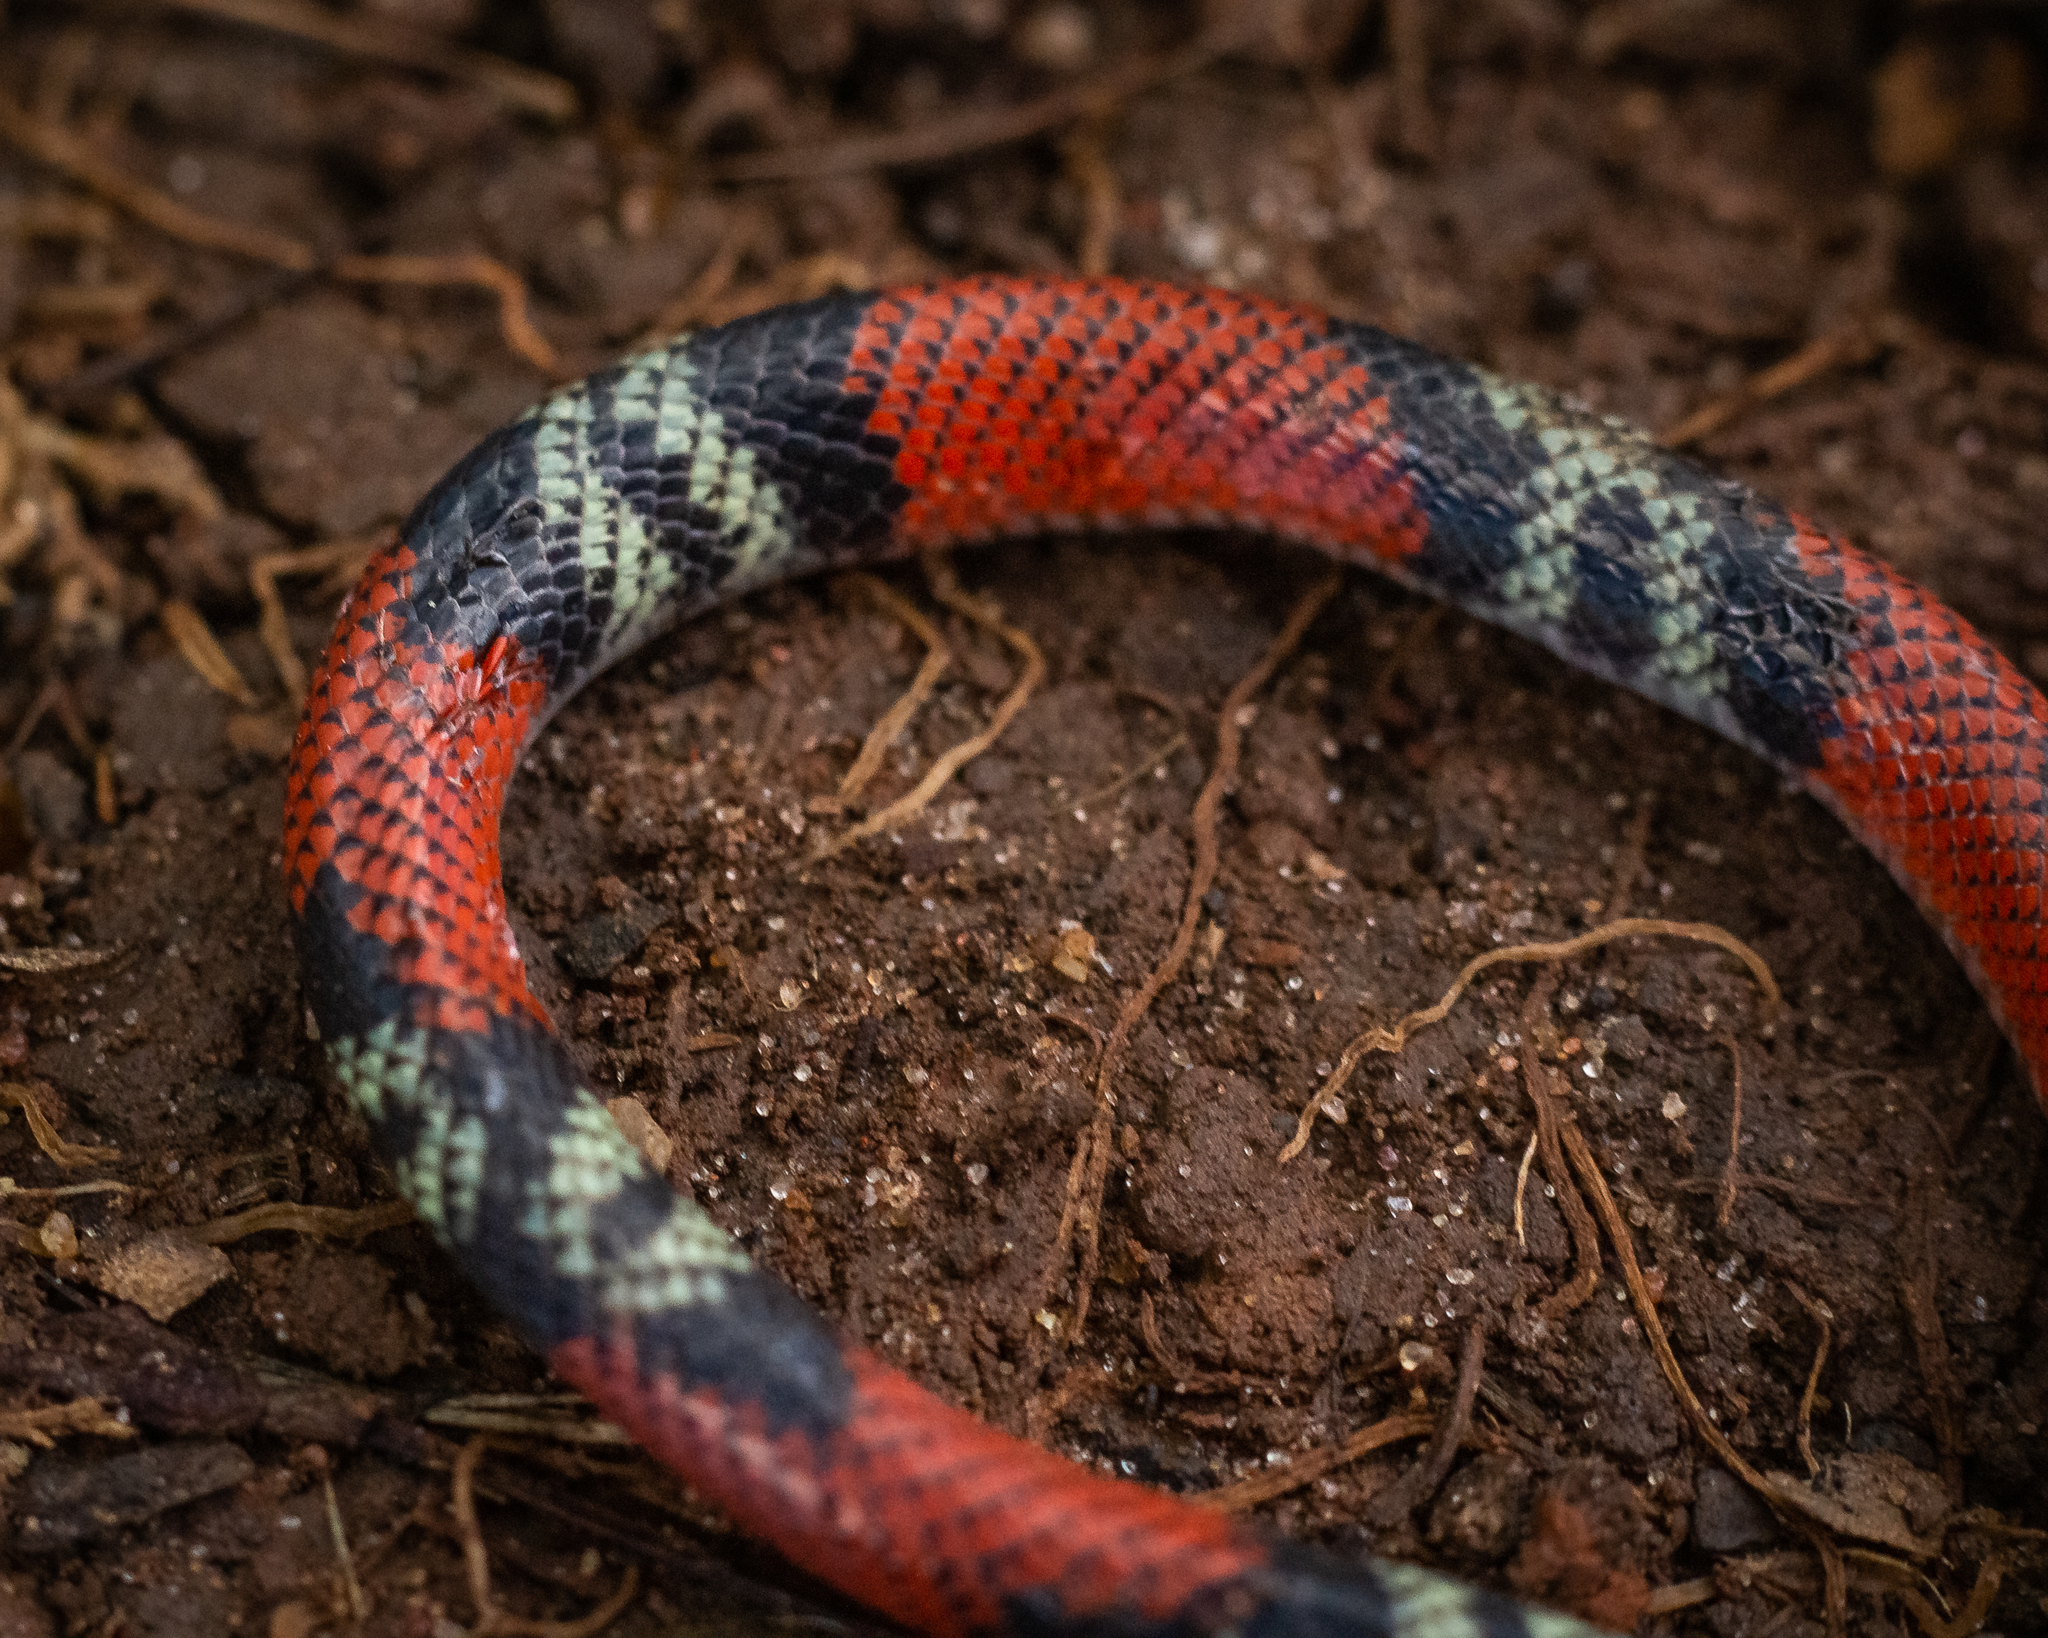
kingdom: Animalia
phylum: Chordata
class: Squamata
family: Colubridae
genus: Oxyrhopus
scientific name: Oxyrhopus guibei
